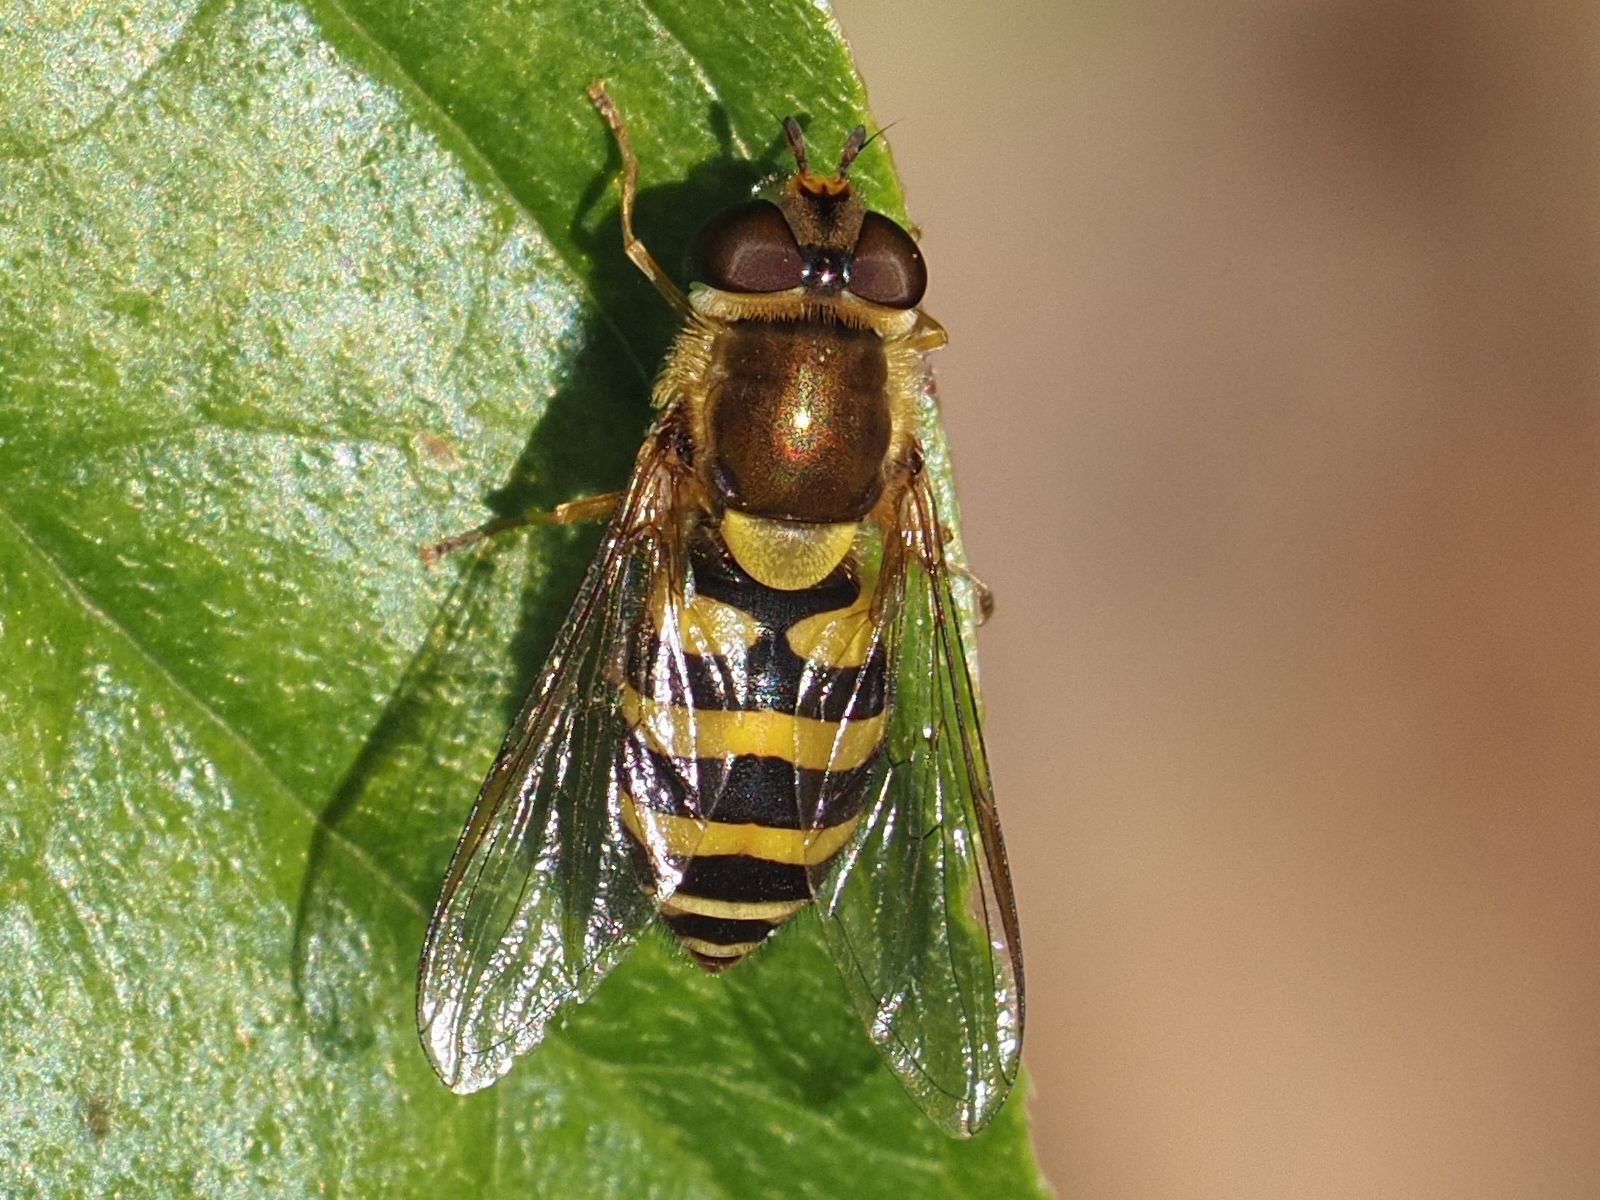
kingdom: Animalia
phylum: Arthropoda
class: Insecta
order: Diptera
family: Syrphidae
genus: Syrphus
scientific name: Syrphus
